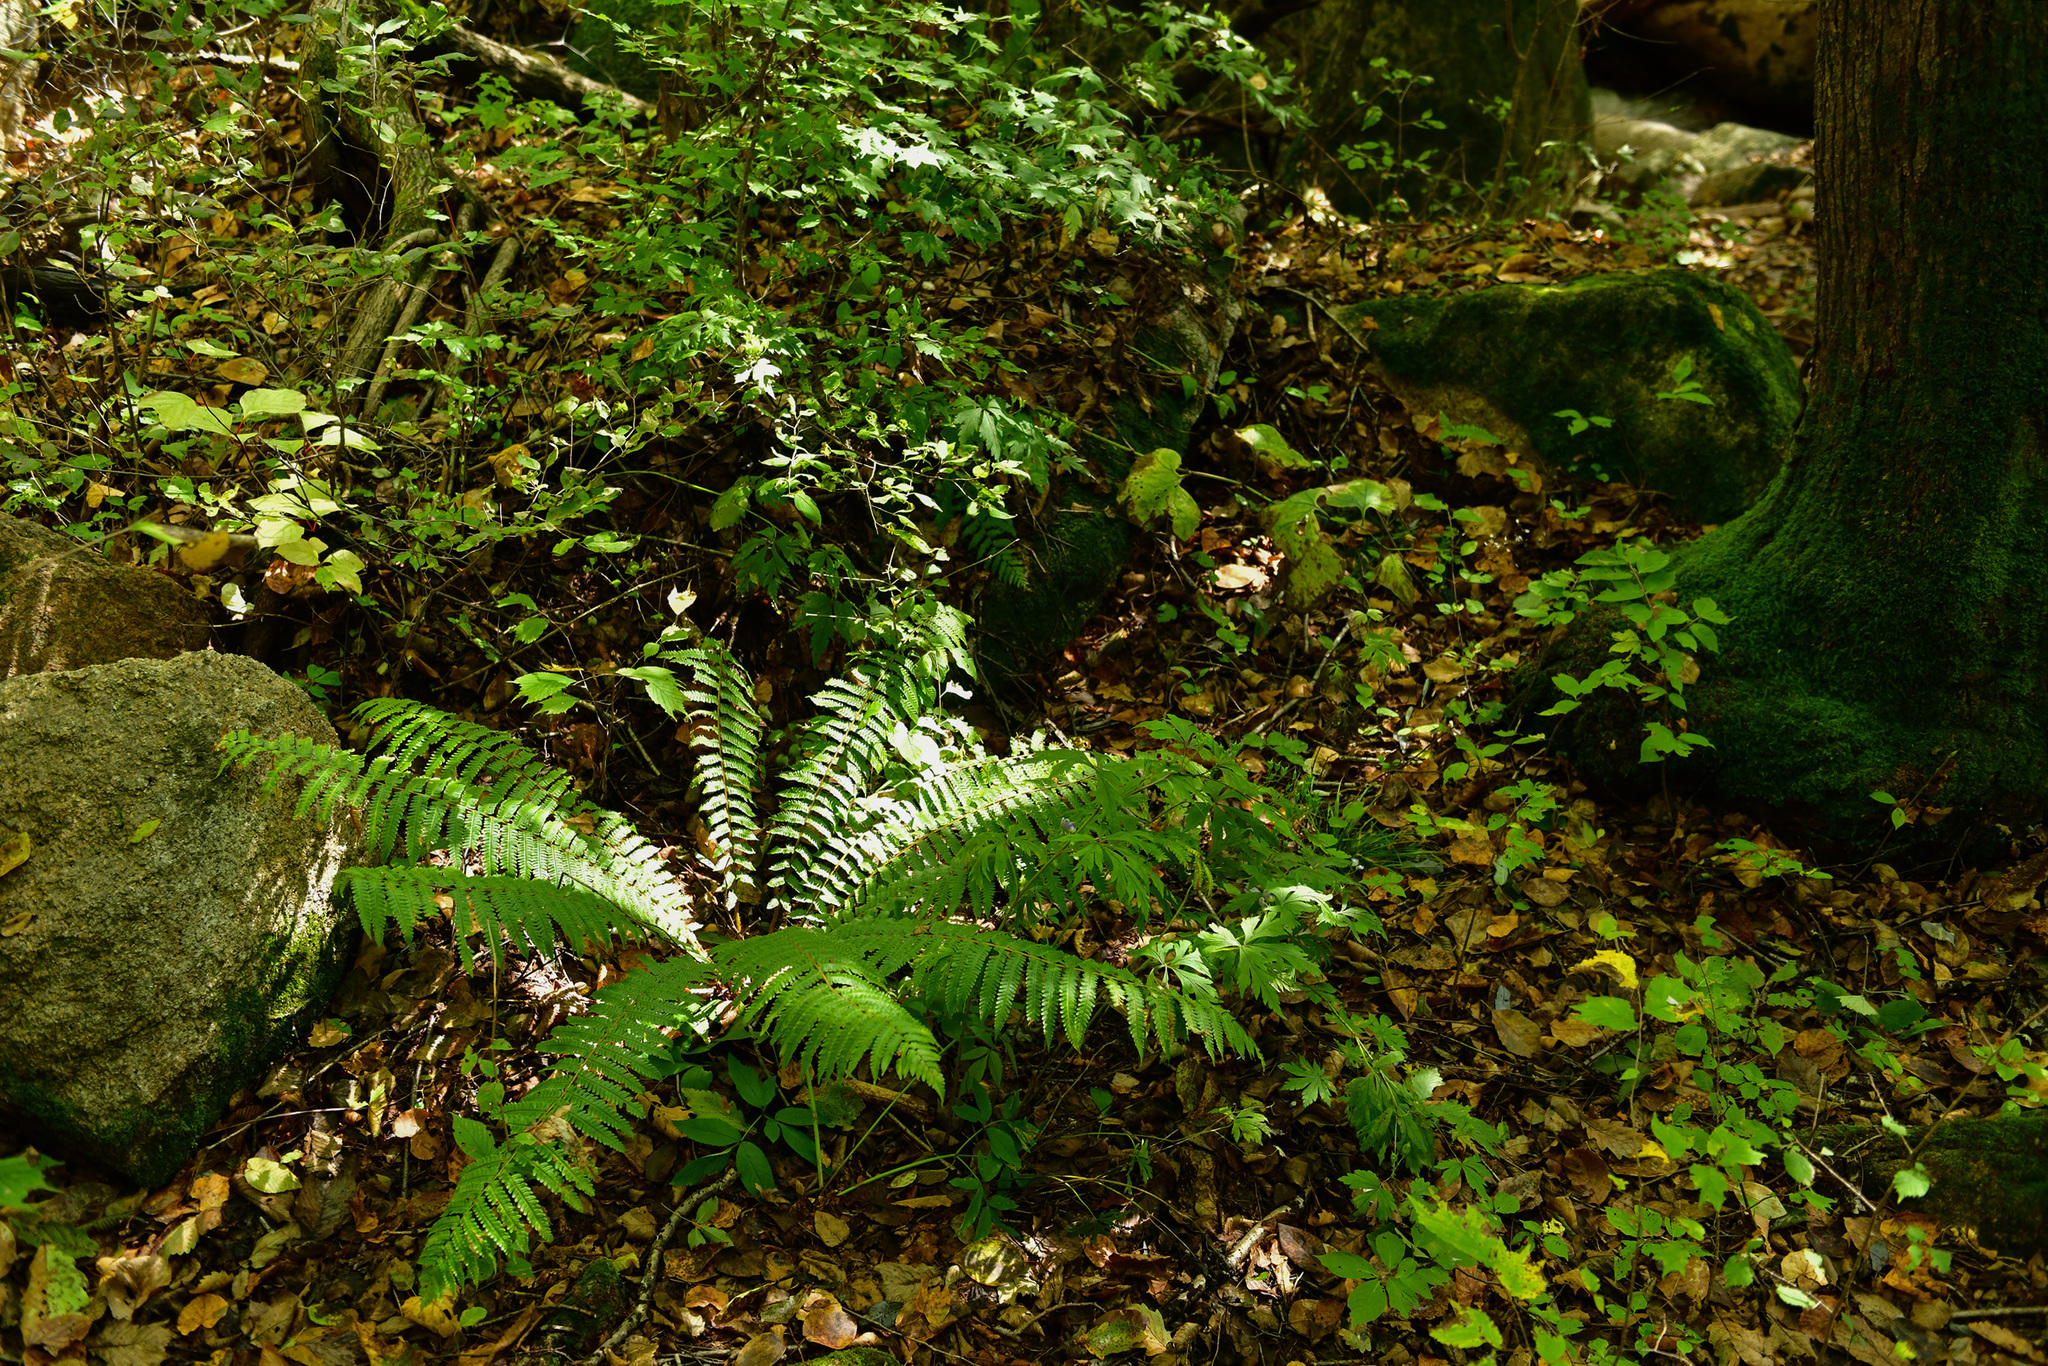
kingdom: Plantae
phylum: Tracheophyta
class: Polypodiopsida
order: Polypodiales
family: Dryopteridaceae
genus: Dryopteris
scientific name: Dryopteris crassirhizoma
